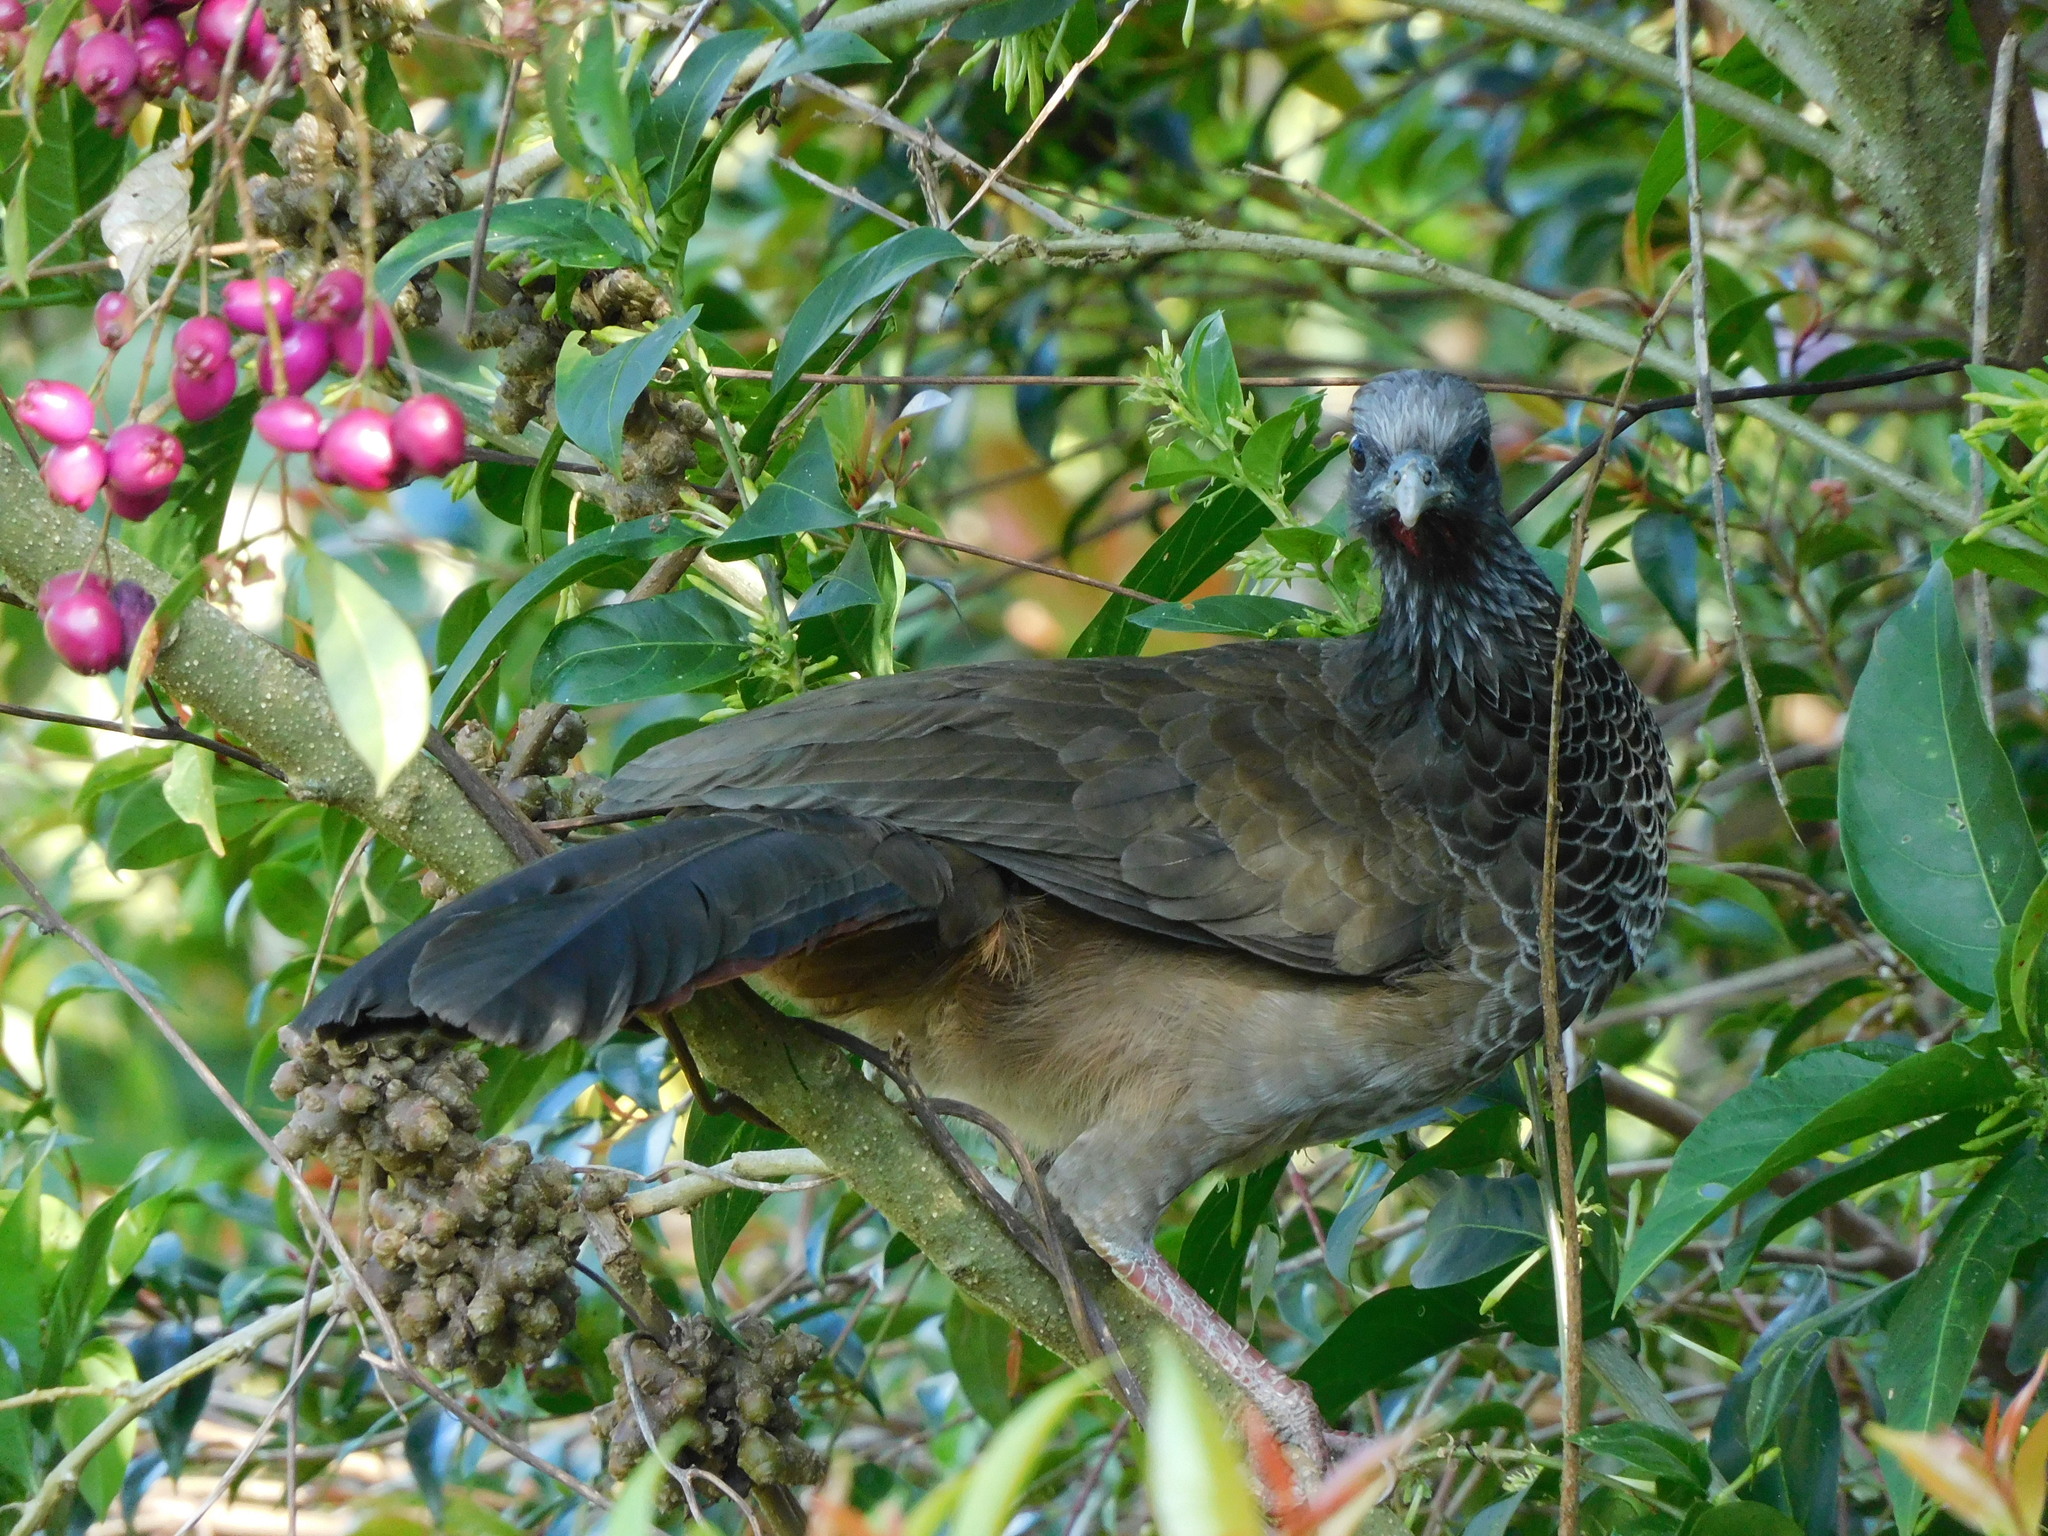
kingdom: Animalia
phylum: Chordata
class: Aves
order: Galliformes
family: Cracidae
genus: Ortalis
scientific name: Ortalis columbiana
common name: Colombian chachalaca
